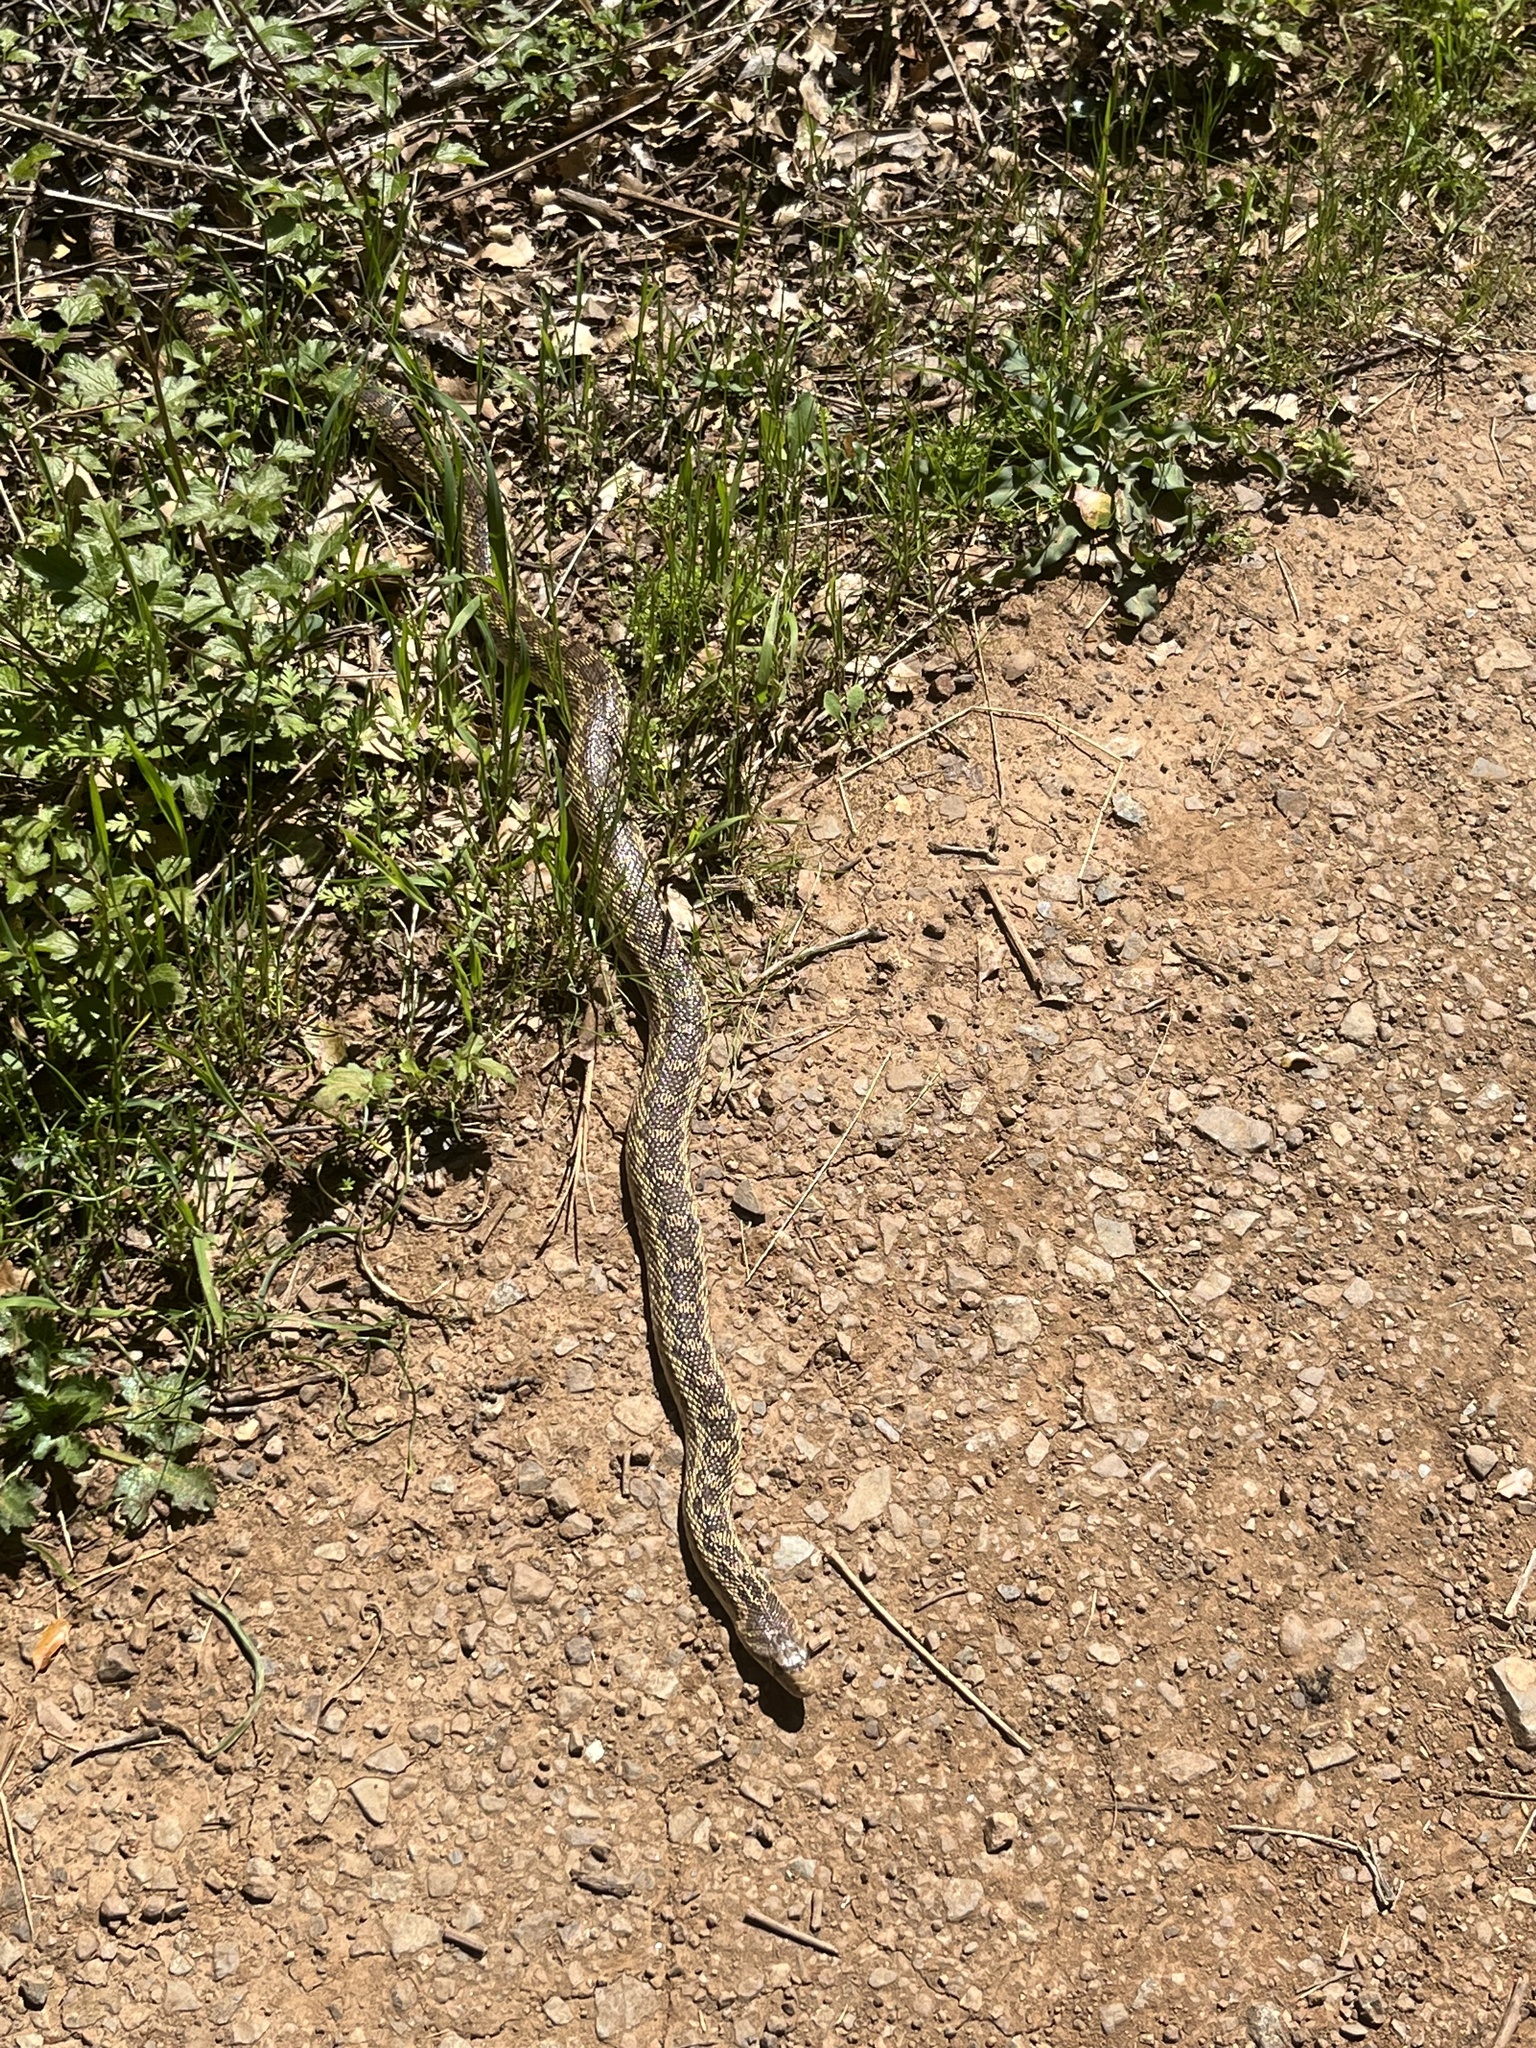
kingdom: Animalia
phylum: Chordata
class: Squamata
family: Colubridae
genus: Pituophis
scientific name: Pituophis catenifer
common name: Gopher snake
